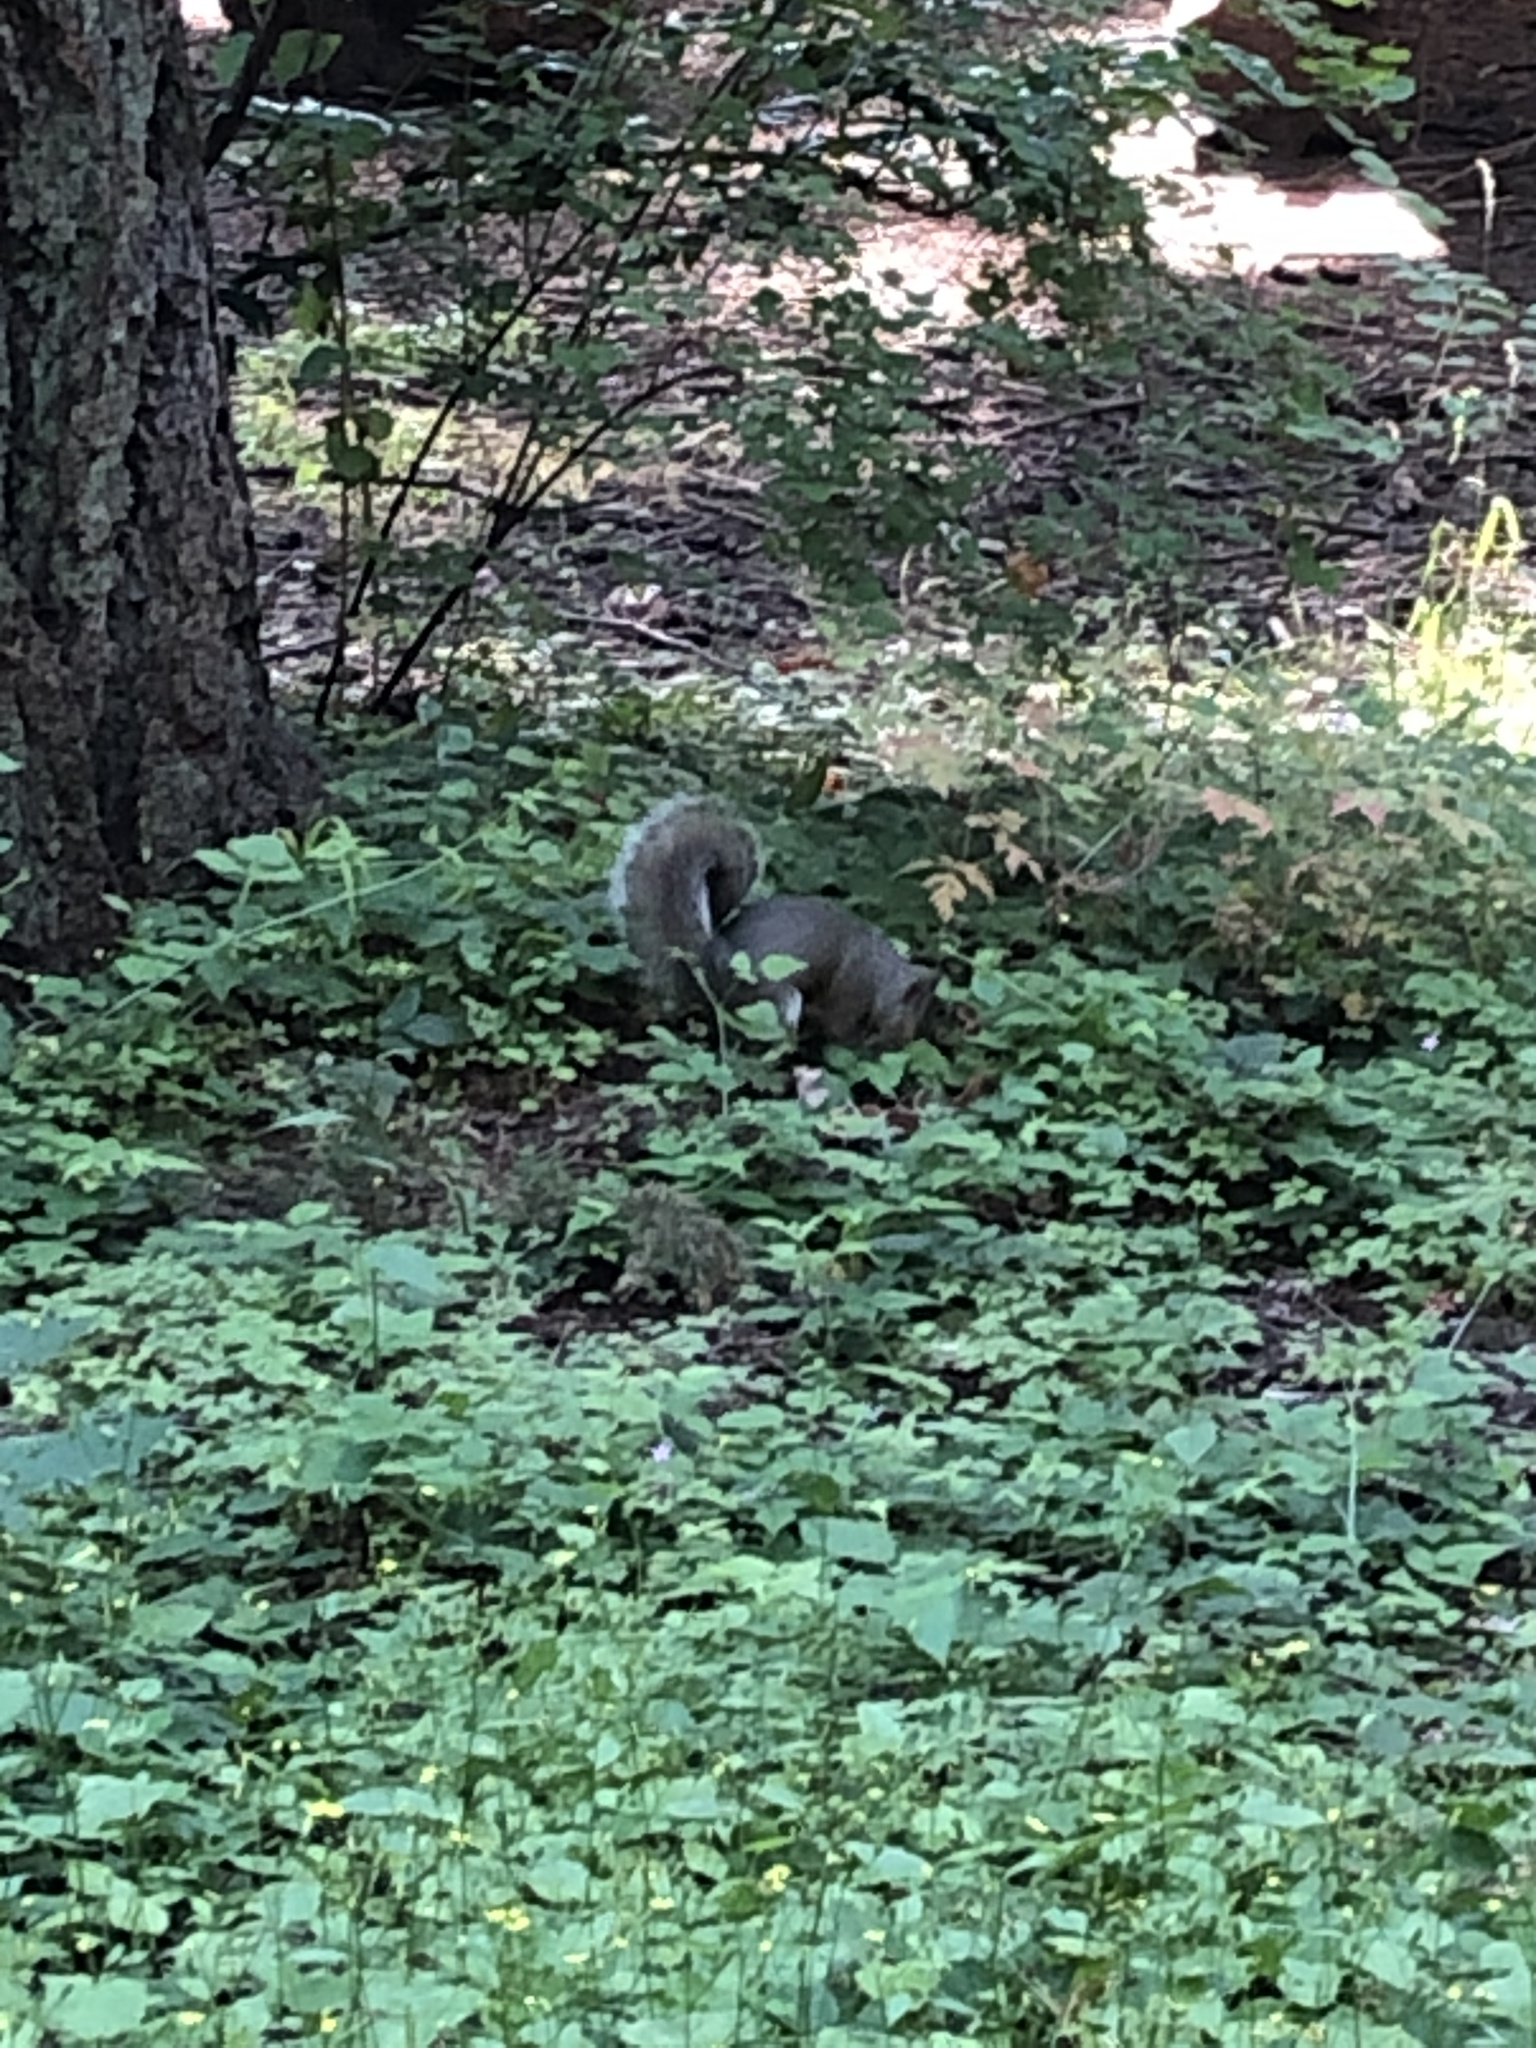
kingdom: Animalia
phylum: Chordata
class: Mammalia
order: Rodentia
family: Sciuridae
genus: Sciurus
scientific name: Sciurus carolinensis
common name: Eastern gray squirrel
